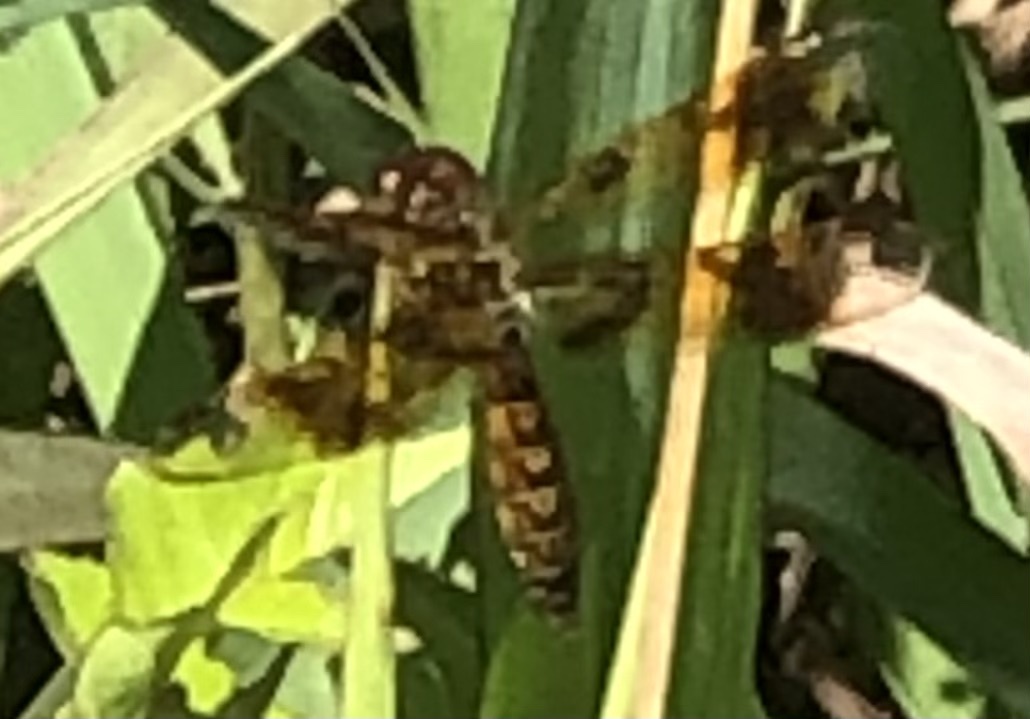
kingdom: Animalia
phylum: Arthropoda
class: Insecta
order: Odonata
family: Libellulidae
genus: Perithemis
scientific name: Perithemis tenera
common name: Eastern amberwing
